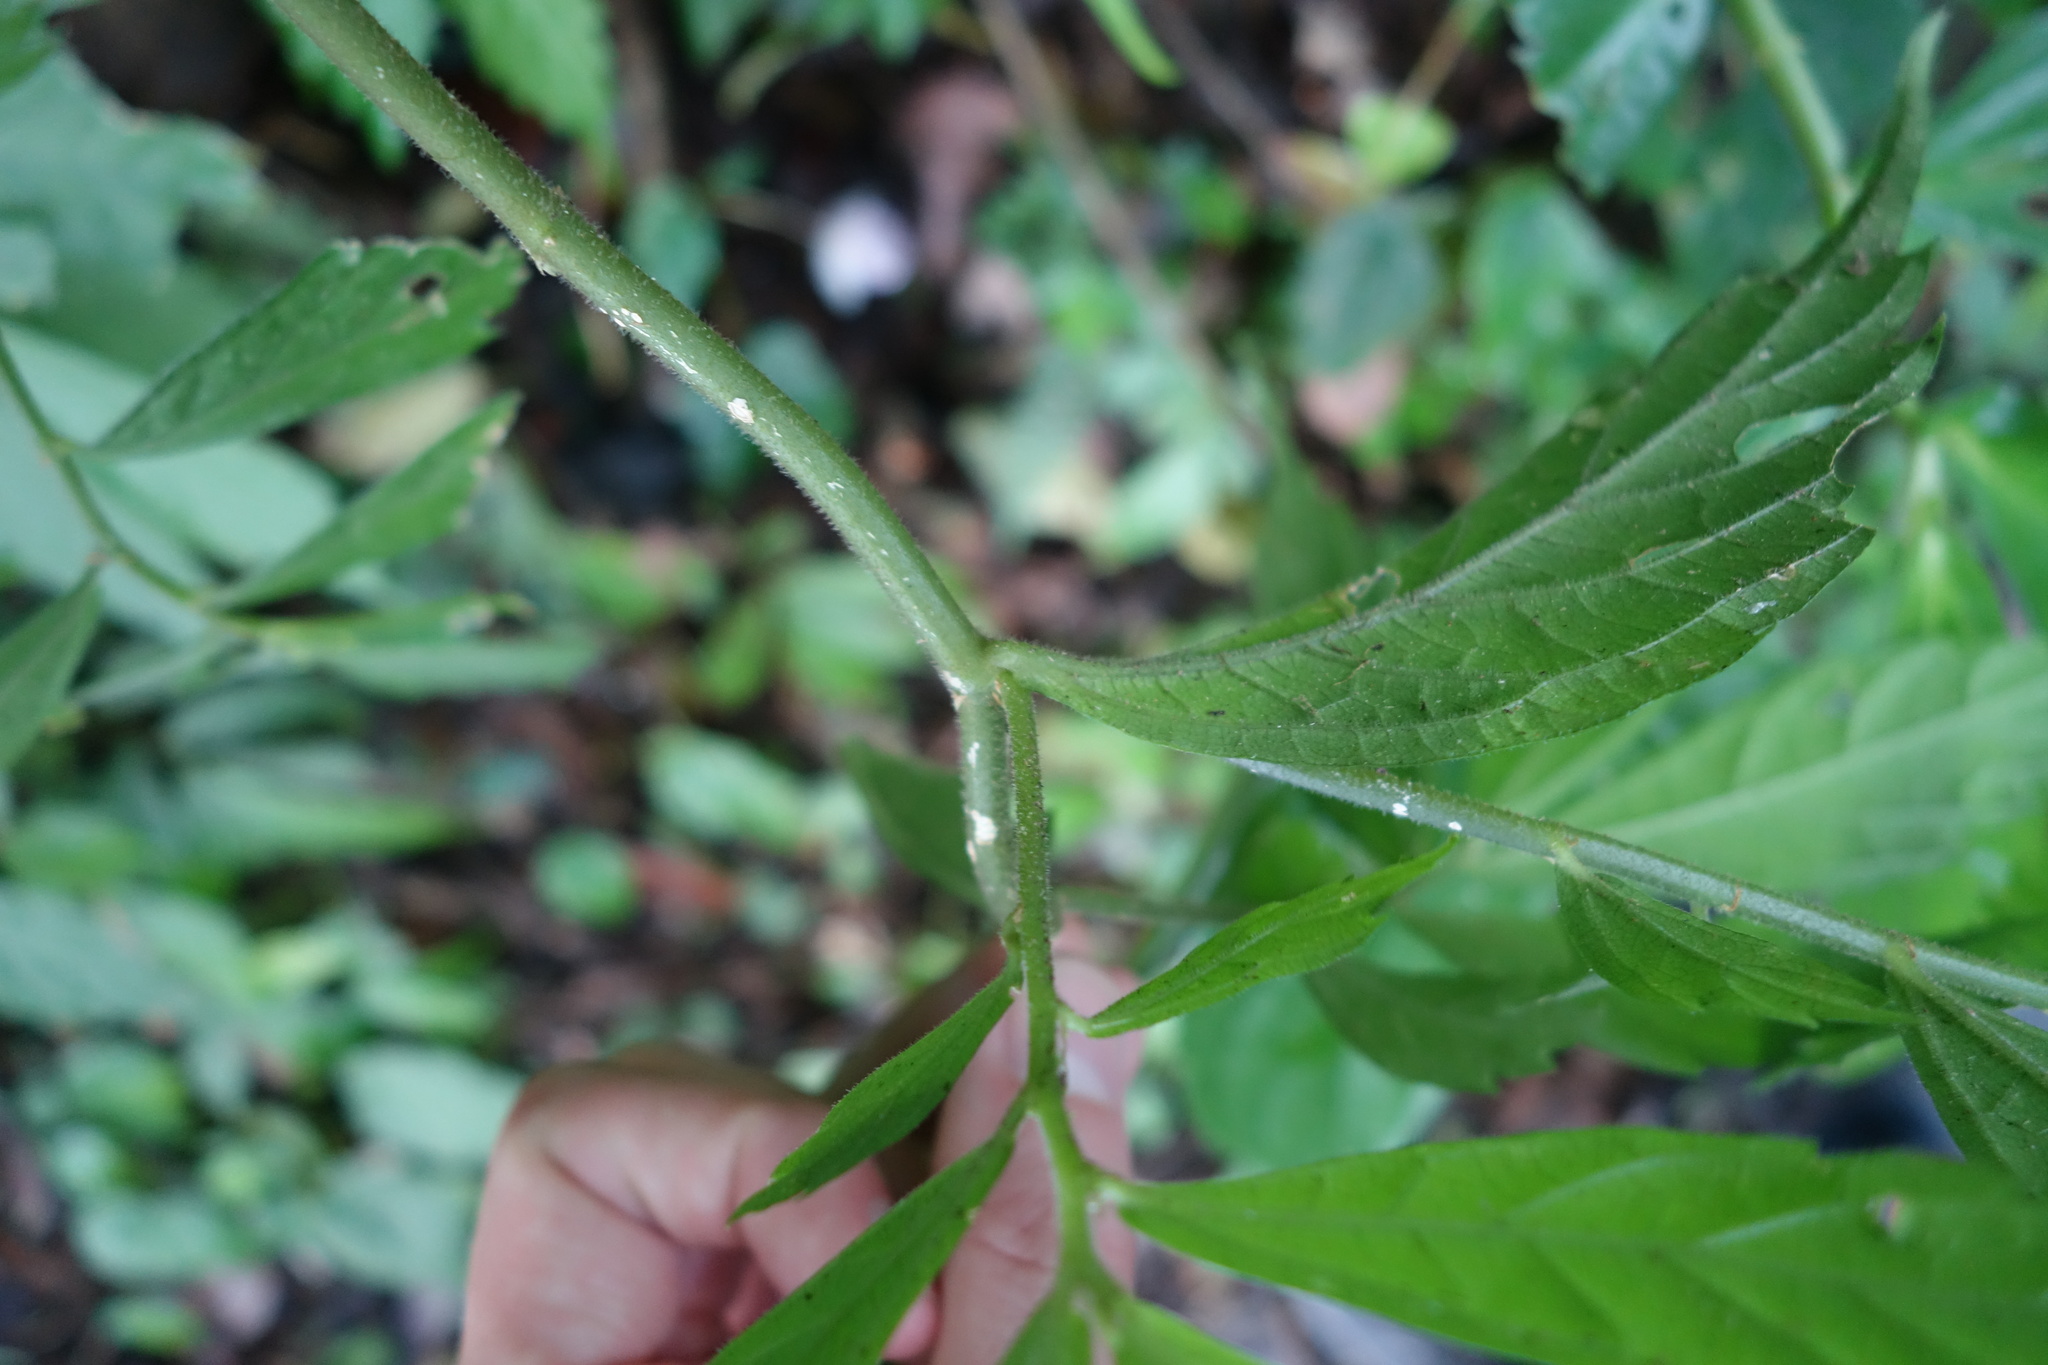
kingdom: Plantae
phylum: Tracheophyta
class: Magnoliopsida
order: Rosales
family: Urticaceae
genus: Elatostema
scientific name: Elatostema lineolatum
